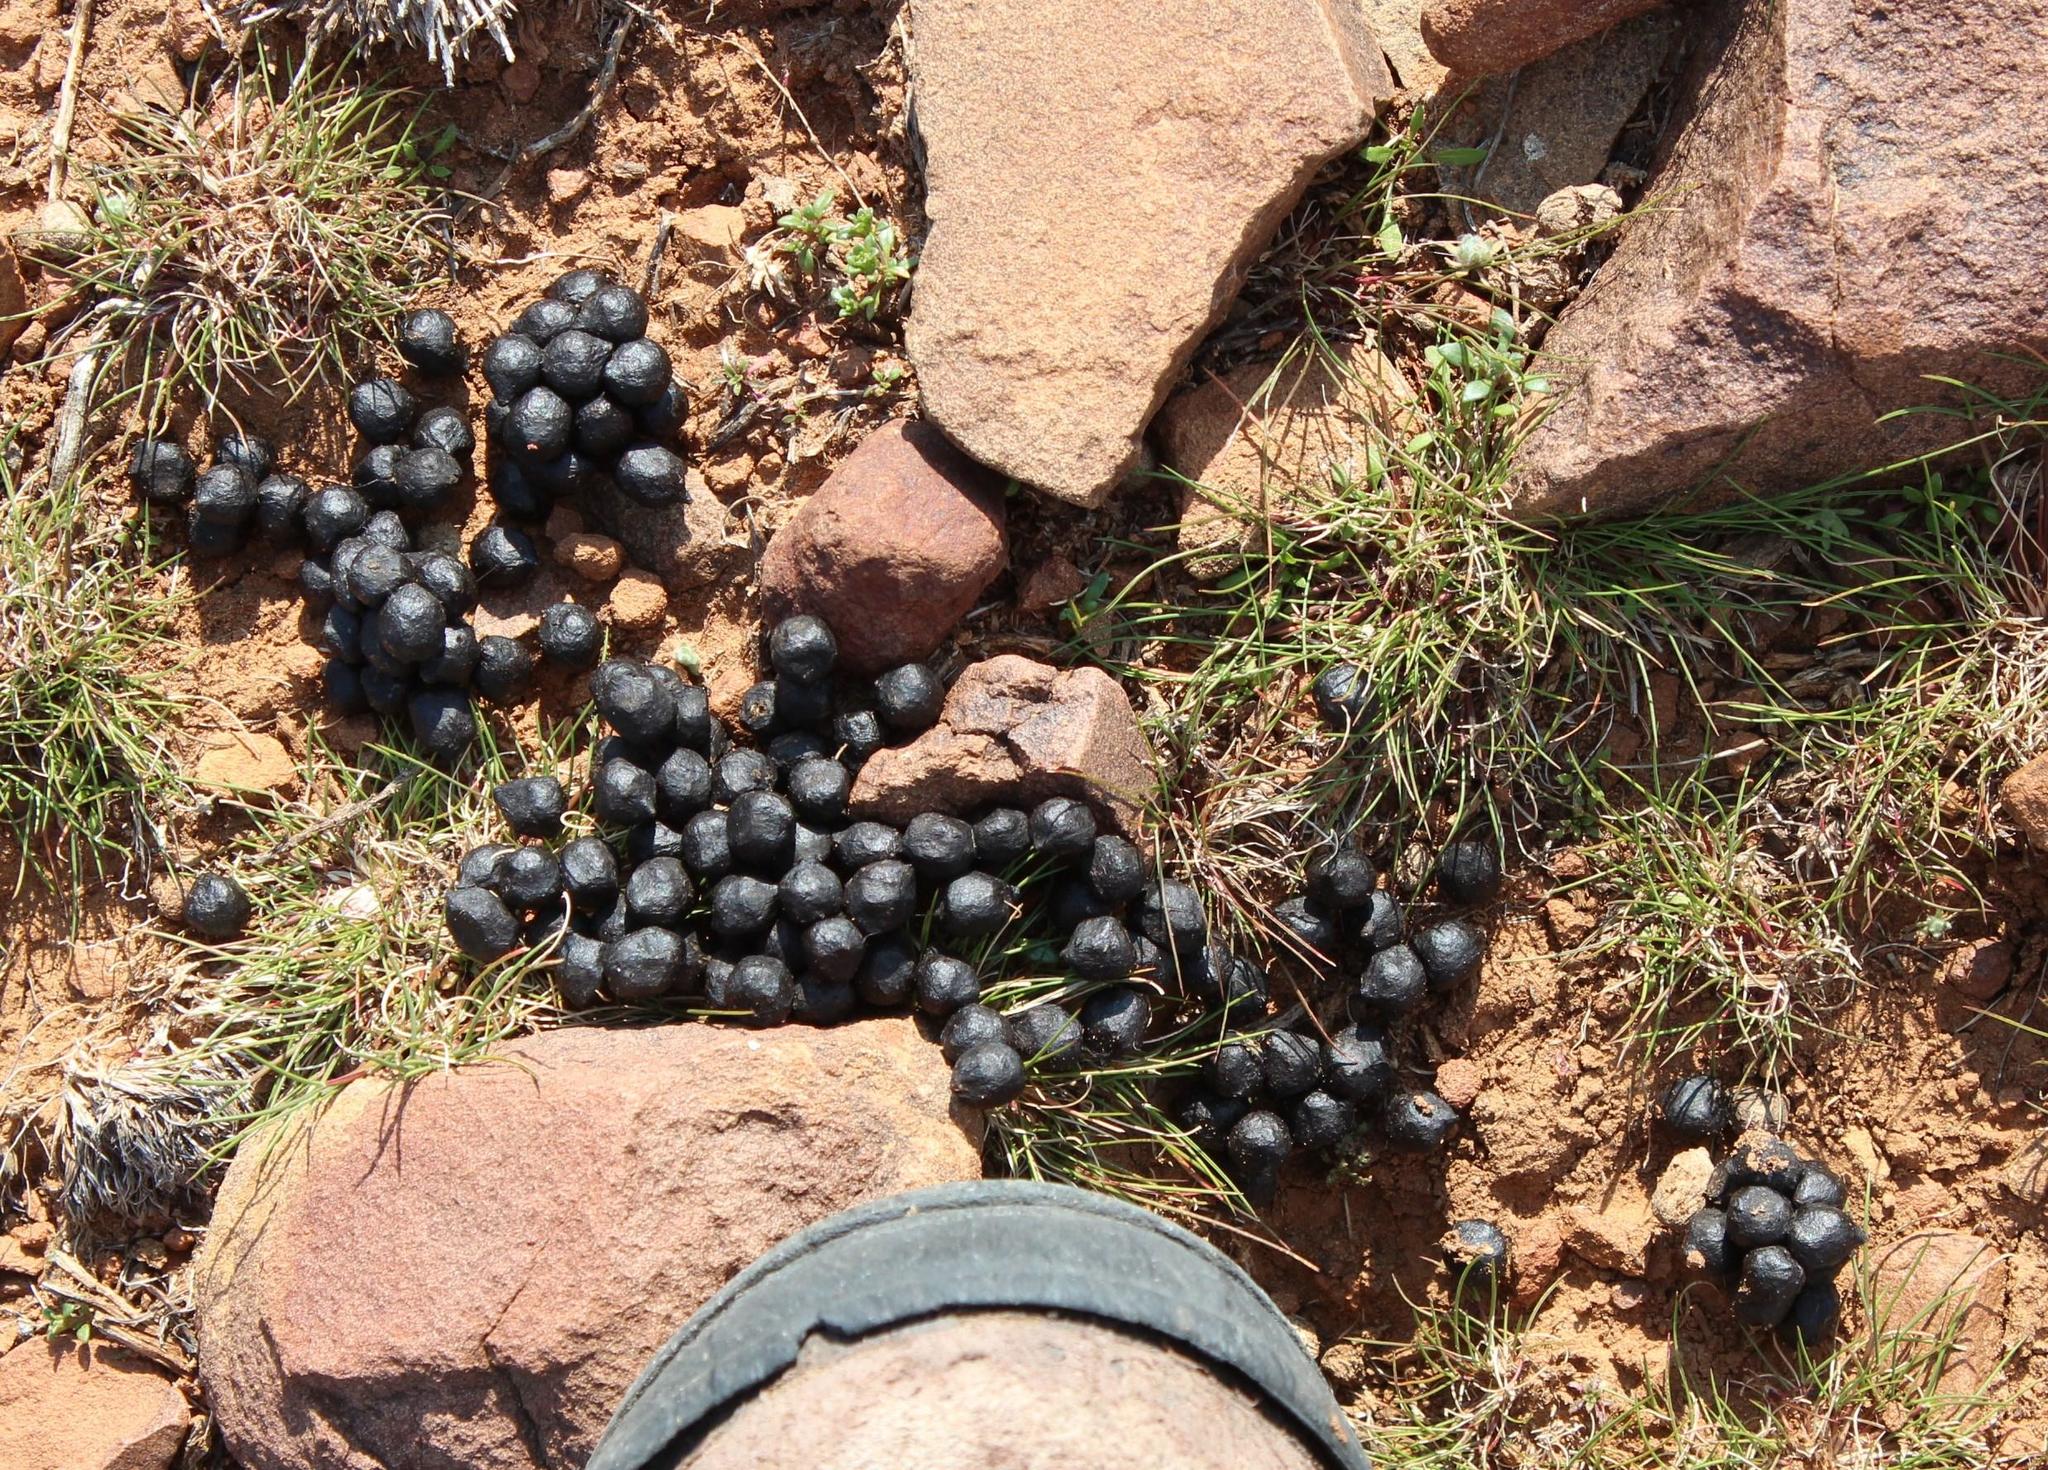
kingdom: Animalia
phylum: Chordata
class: Mammalia
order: Artiodactyla
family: Bovidae
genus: Antidorcas
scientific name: Antidorcas marsupialis
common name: Springbok
